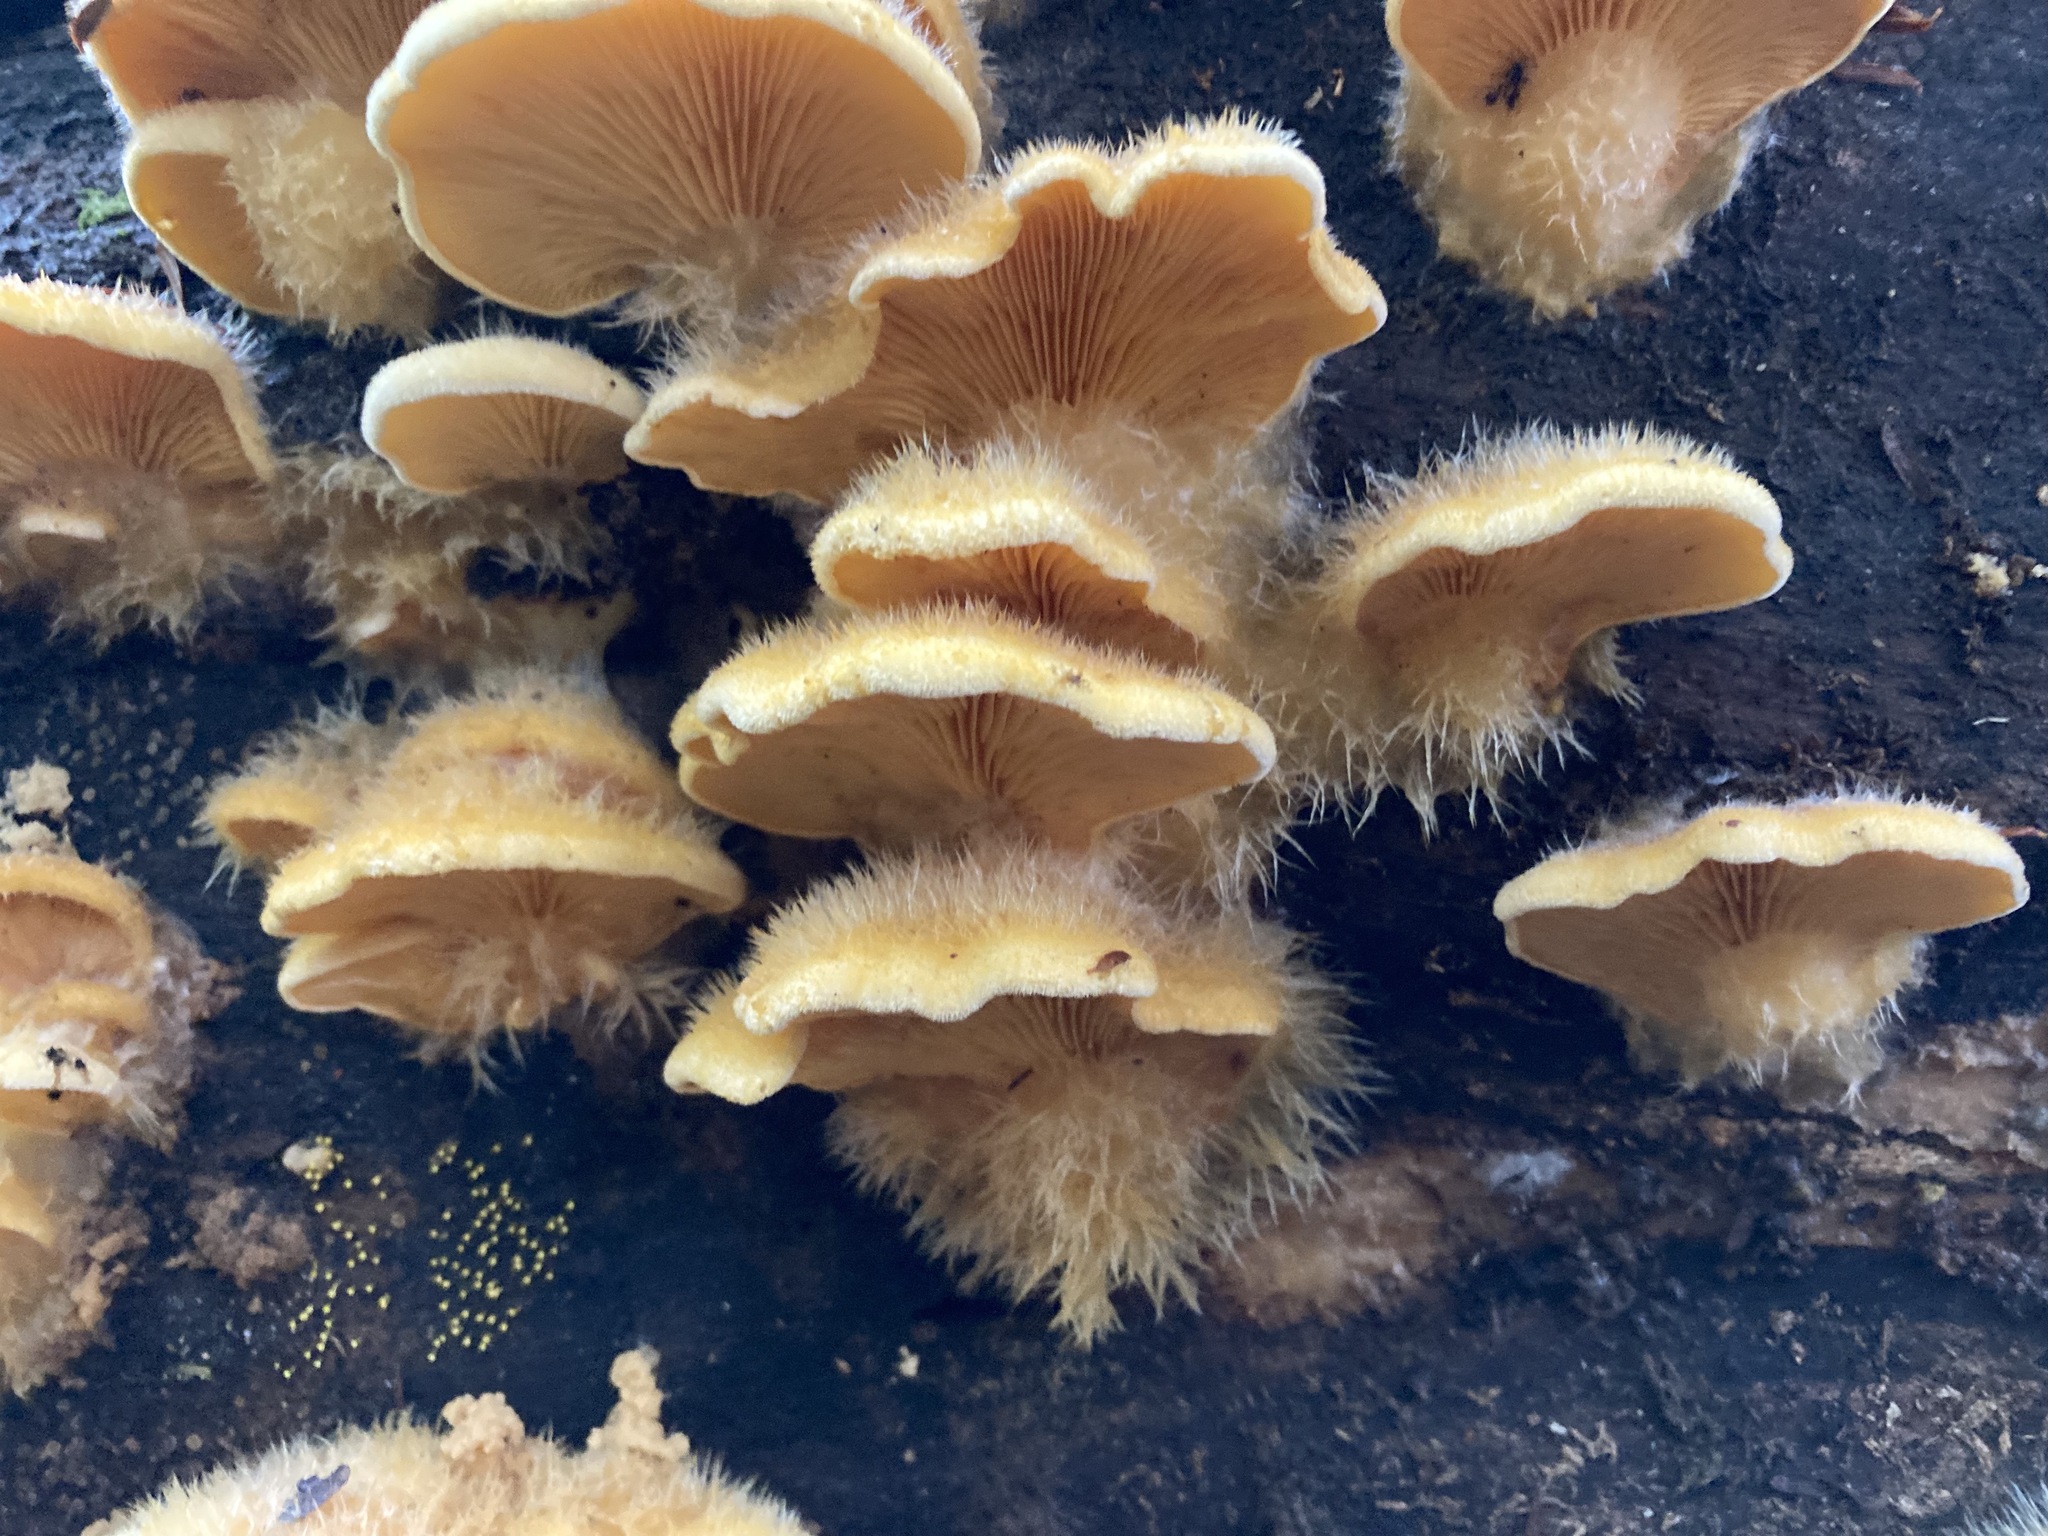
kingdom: Fungi
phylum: Basidiomycota
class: Agaricomycetes
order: Agaricales
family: Phyllotopsidaceae
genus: Phyllotopsis
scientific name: Phyllotopsis nidulans
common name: Orange mock oyster
